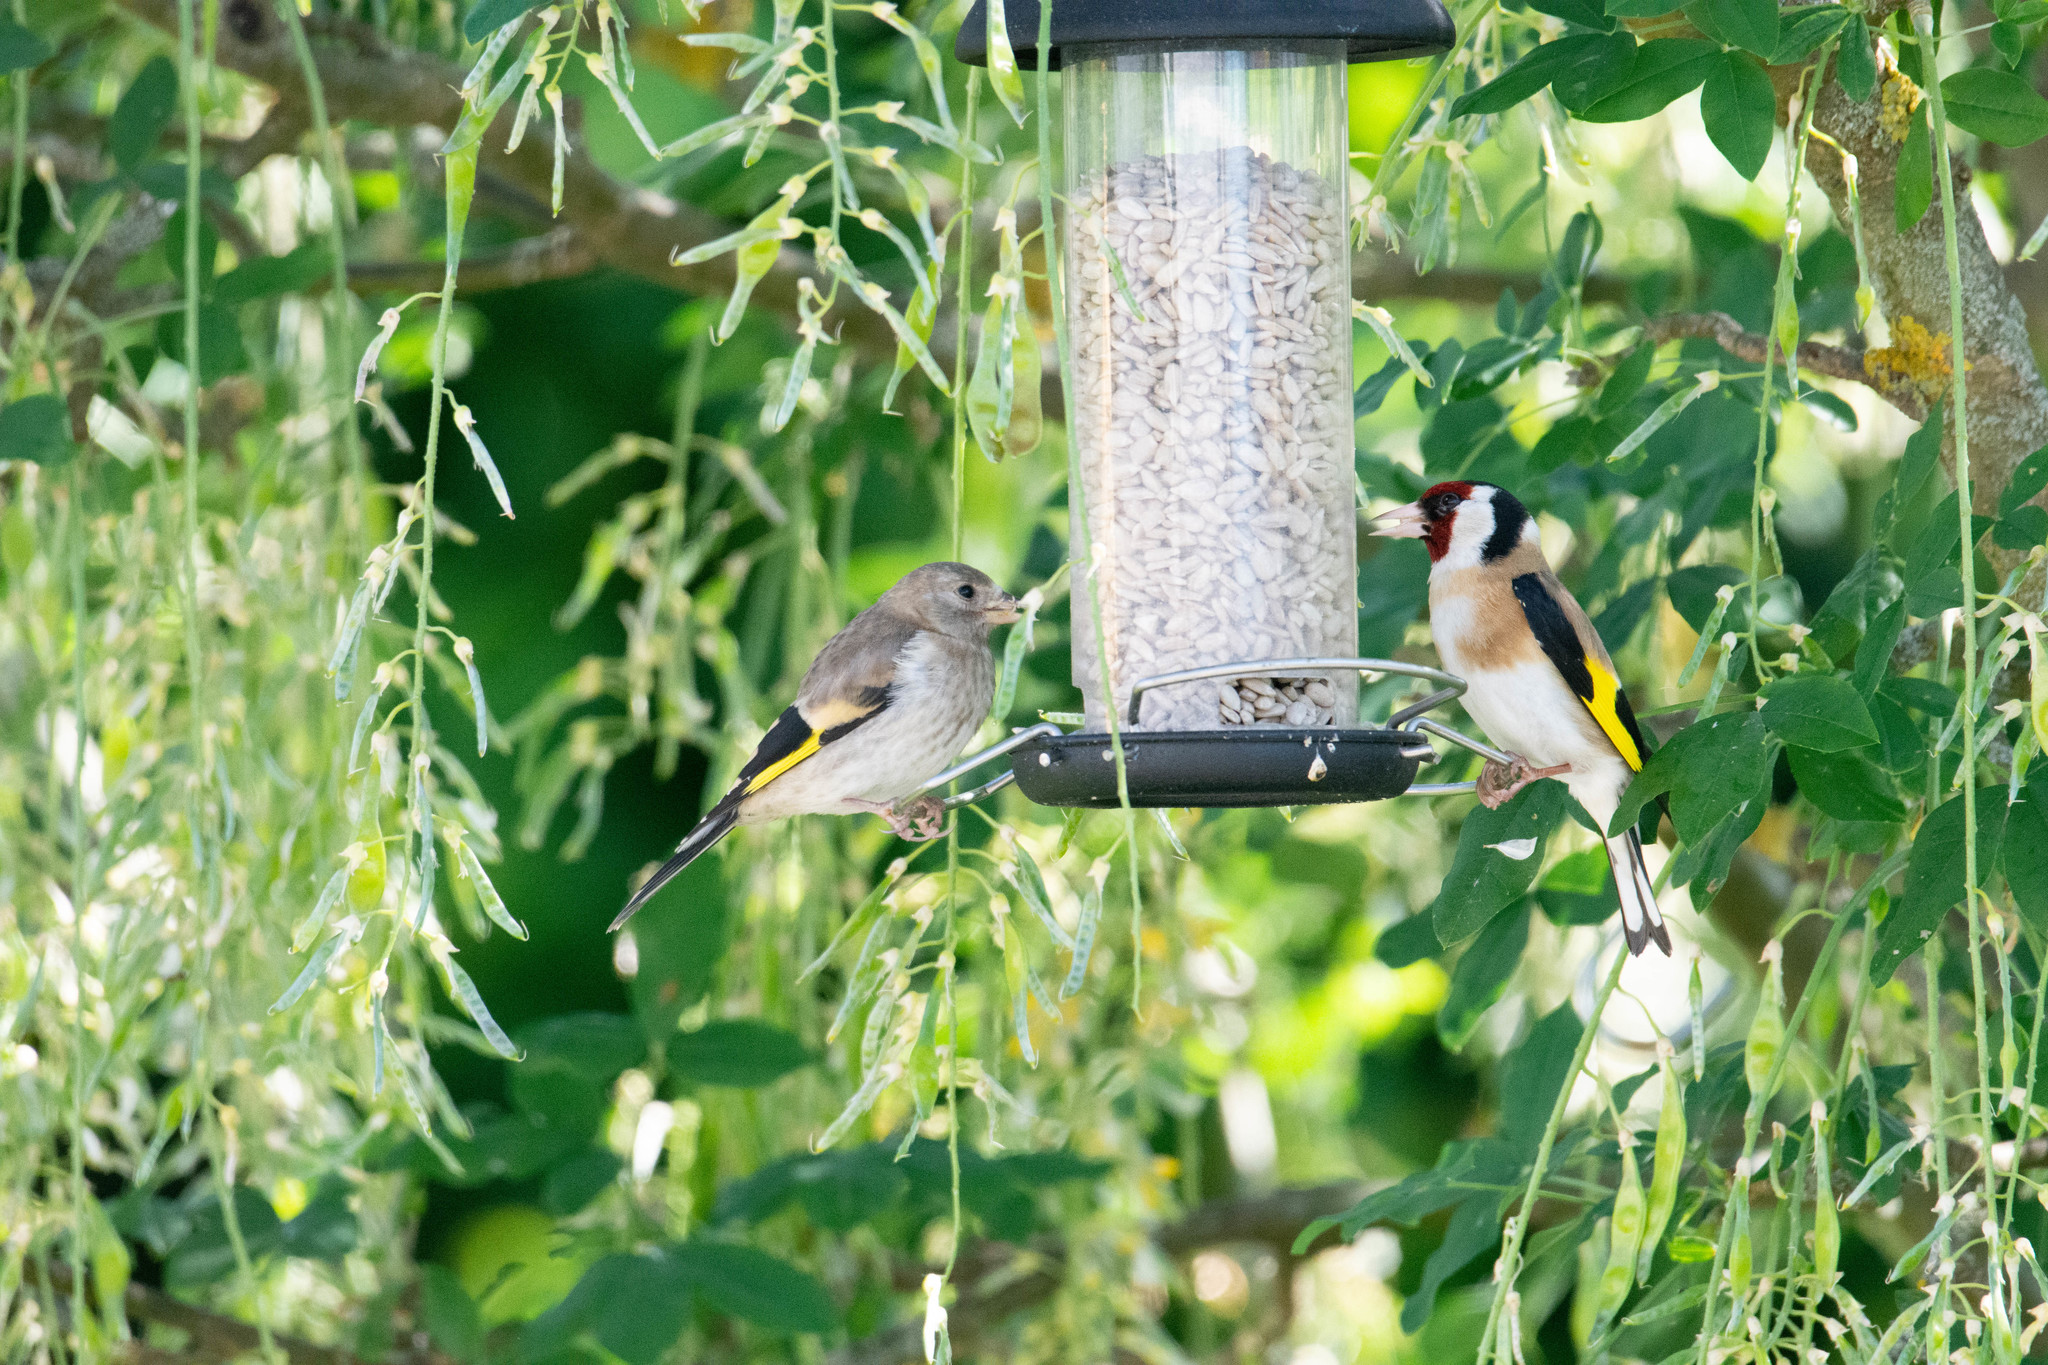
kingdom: Animalia
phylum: Chordata
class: Aves
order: Passeriformes
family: Fringillidae
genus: Carduelis
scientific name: Carduelis carduelis
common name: European goldfinch
